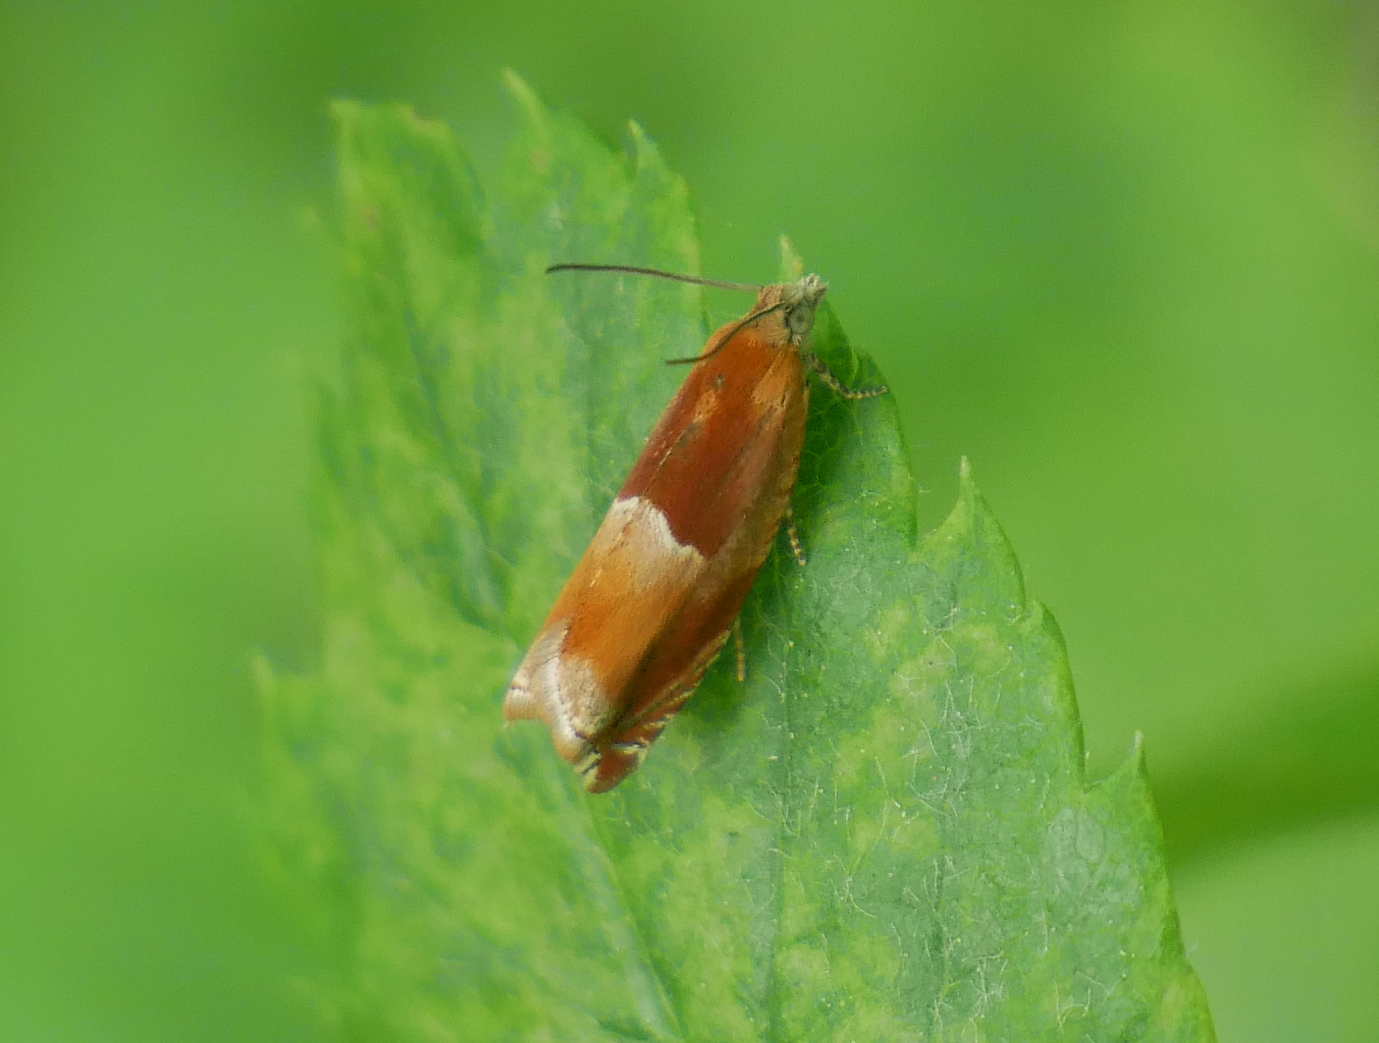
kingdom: Animalia
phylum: Arthropoda
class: Insecta
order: Lepidoptera
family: Tortricidae
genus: Ancylis
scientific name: Ancylis mitterbacheriana
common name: Red roller
